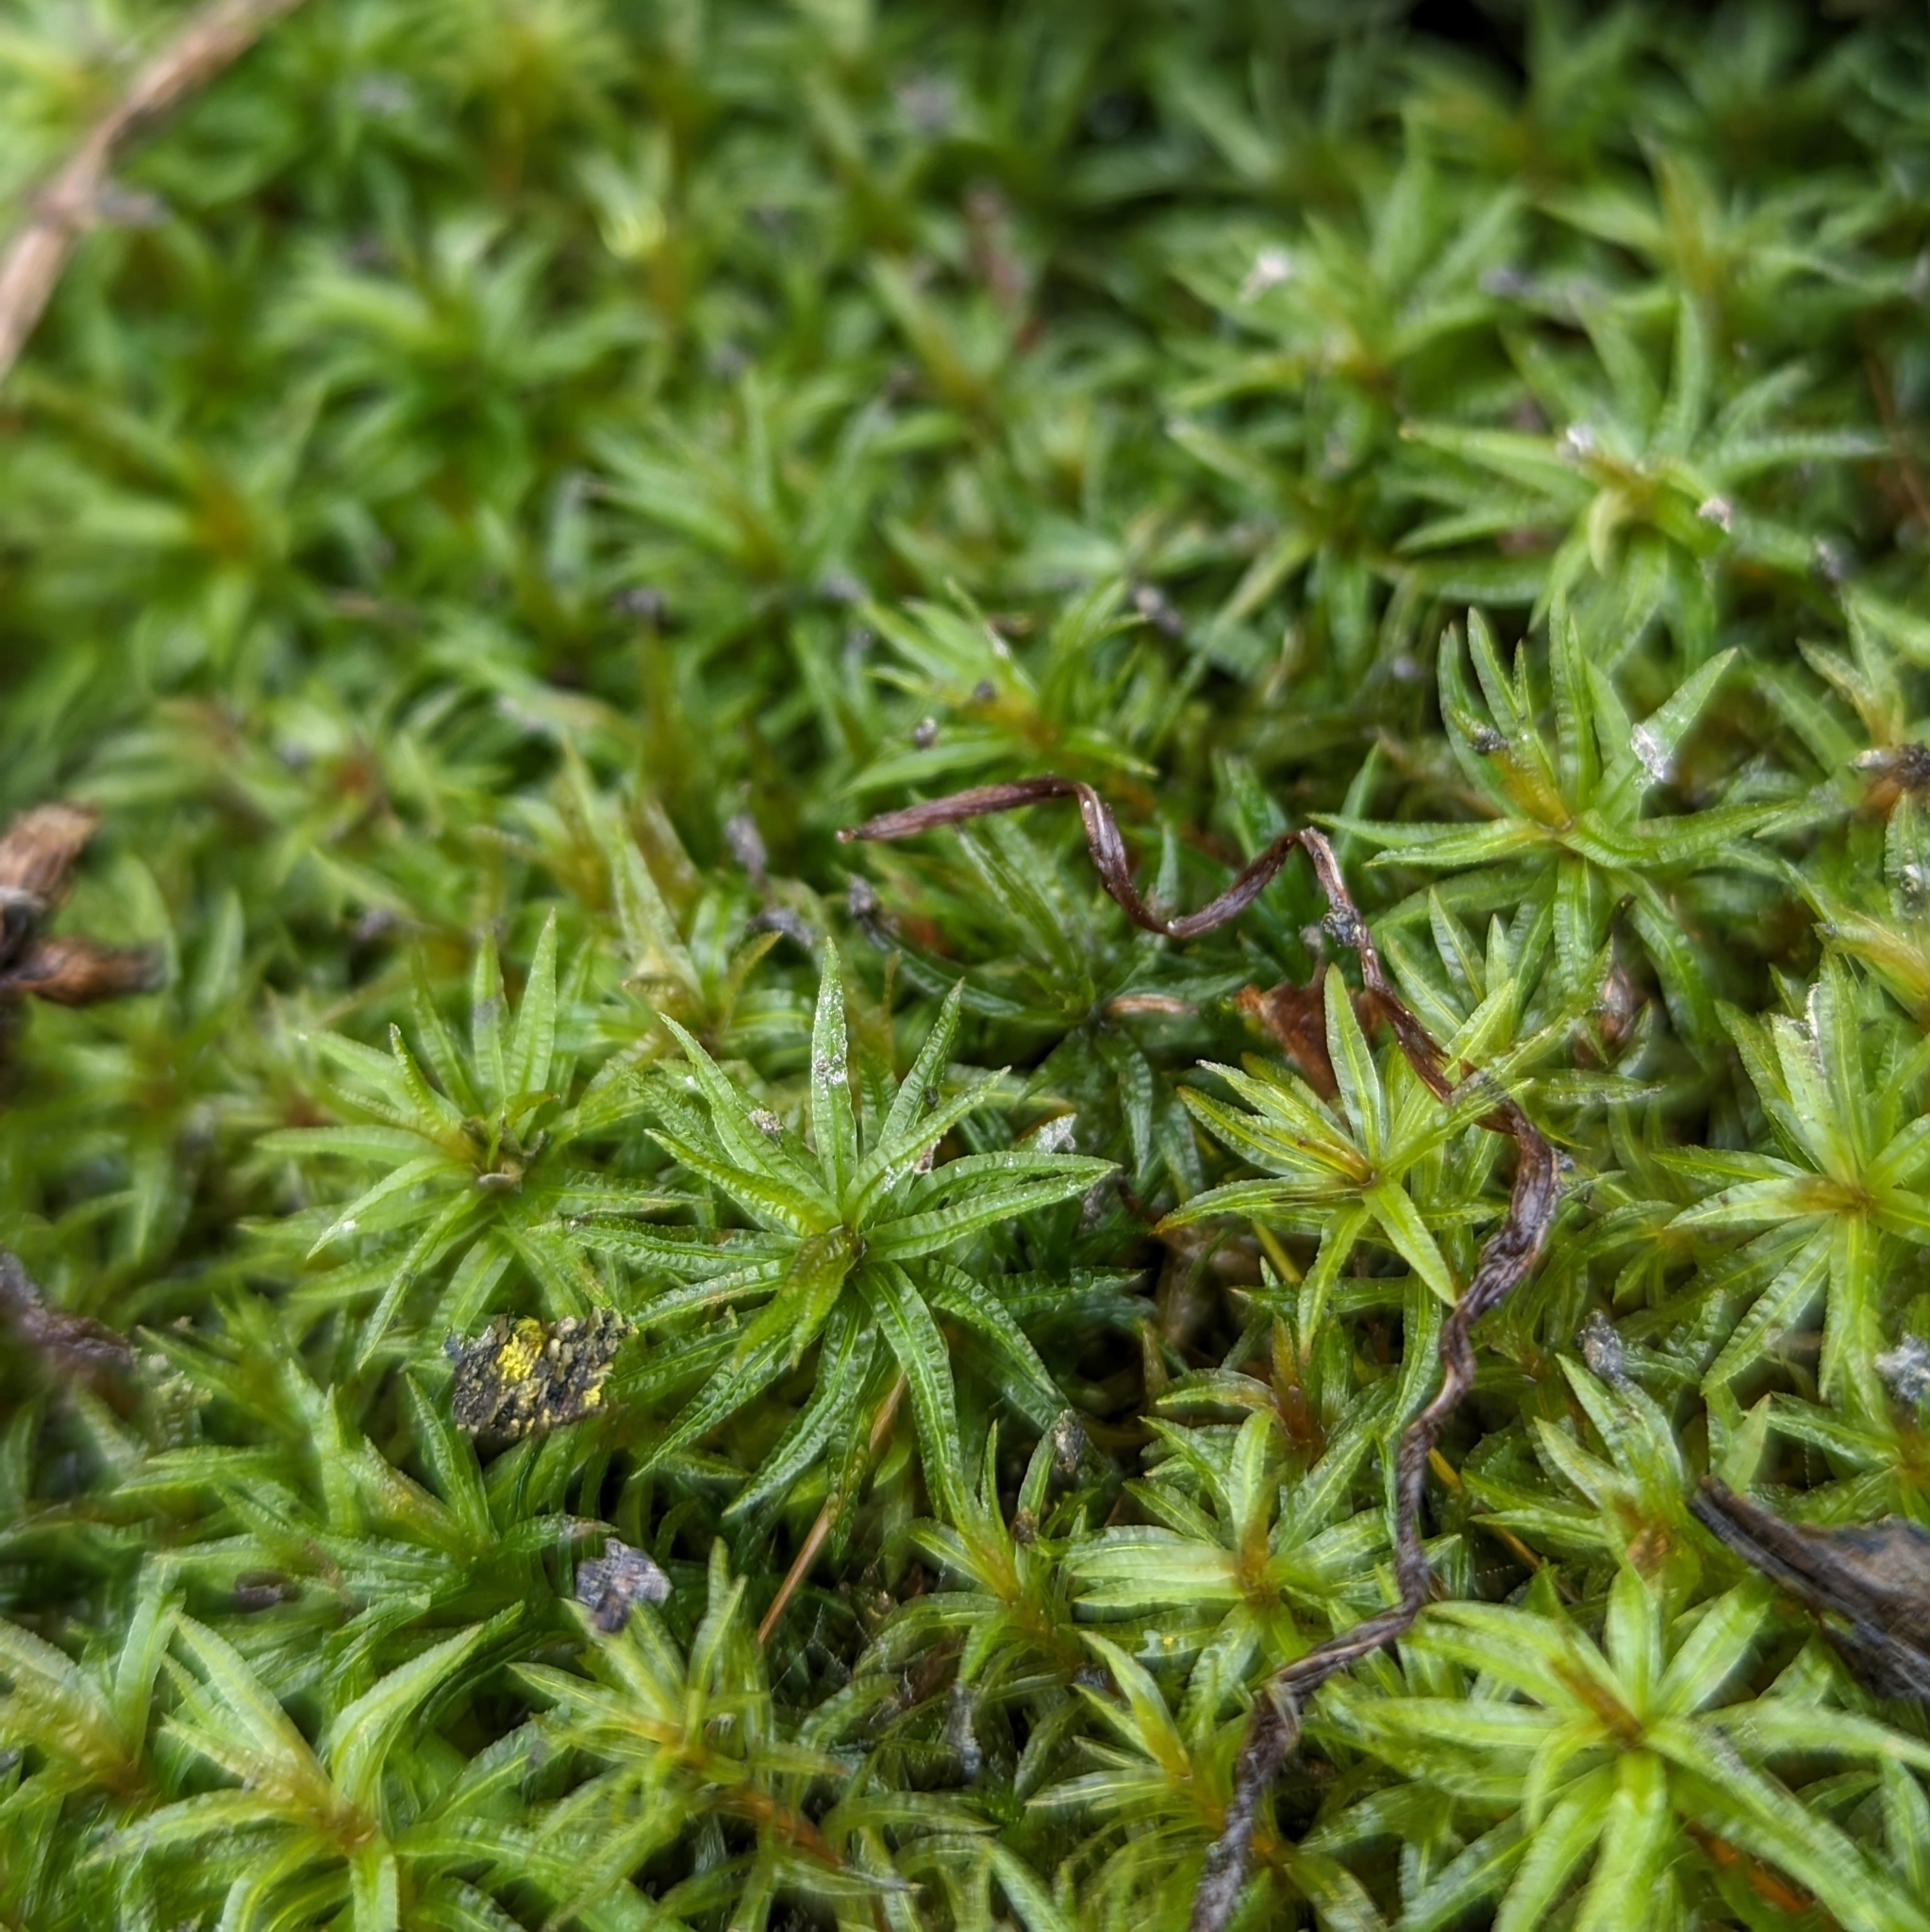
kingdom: Plantae
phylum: Bryophyta
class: Polytrichopsida
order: Polytrichales
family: Polytrichaceae
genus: Atrichum
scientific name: Atrichum
